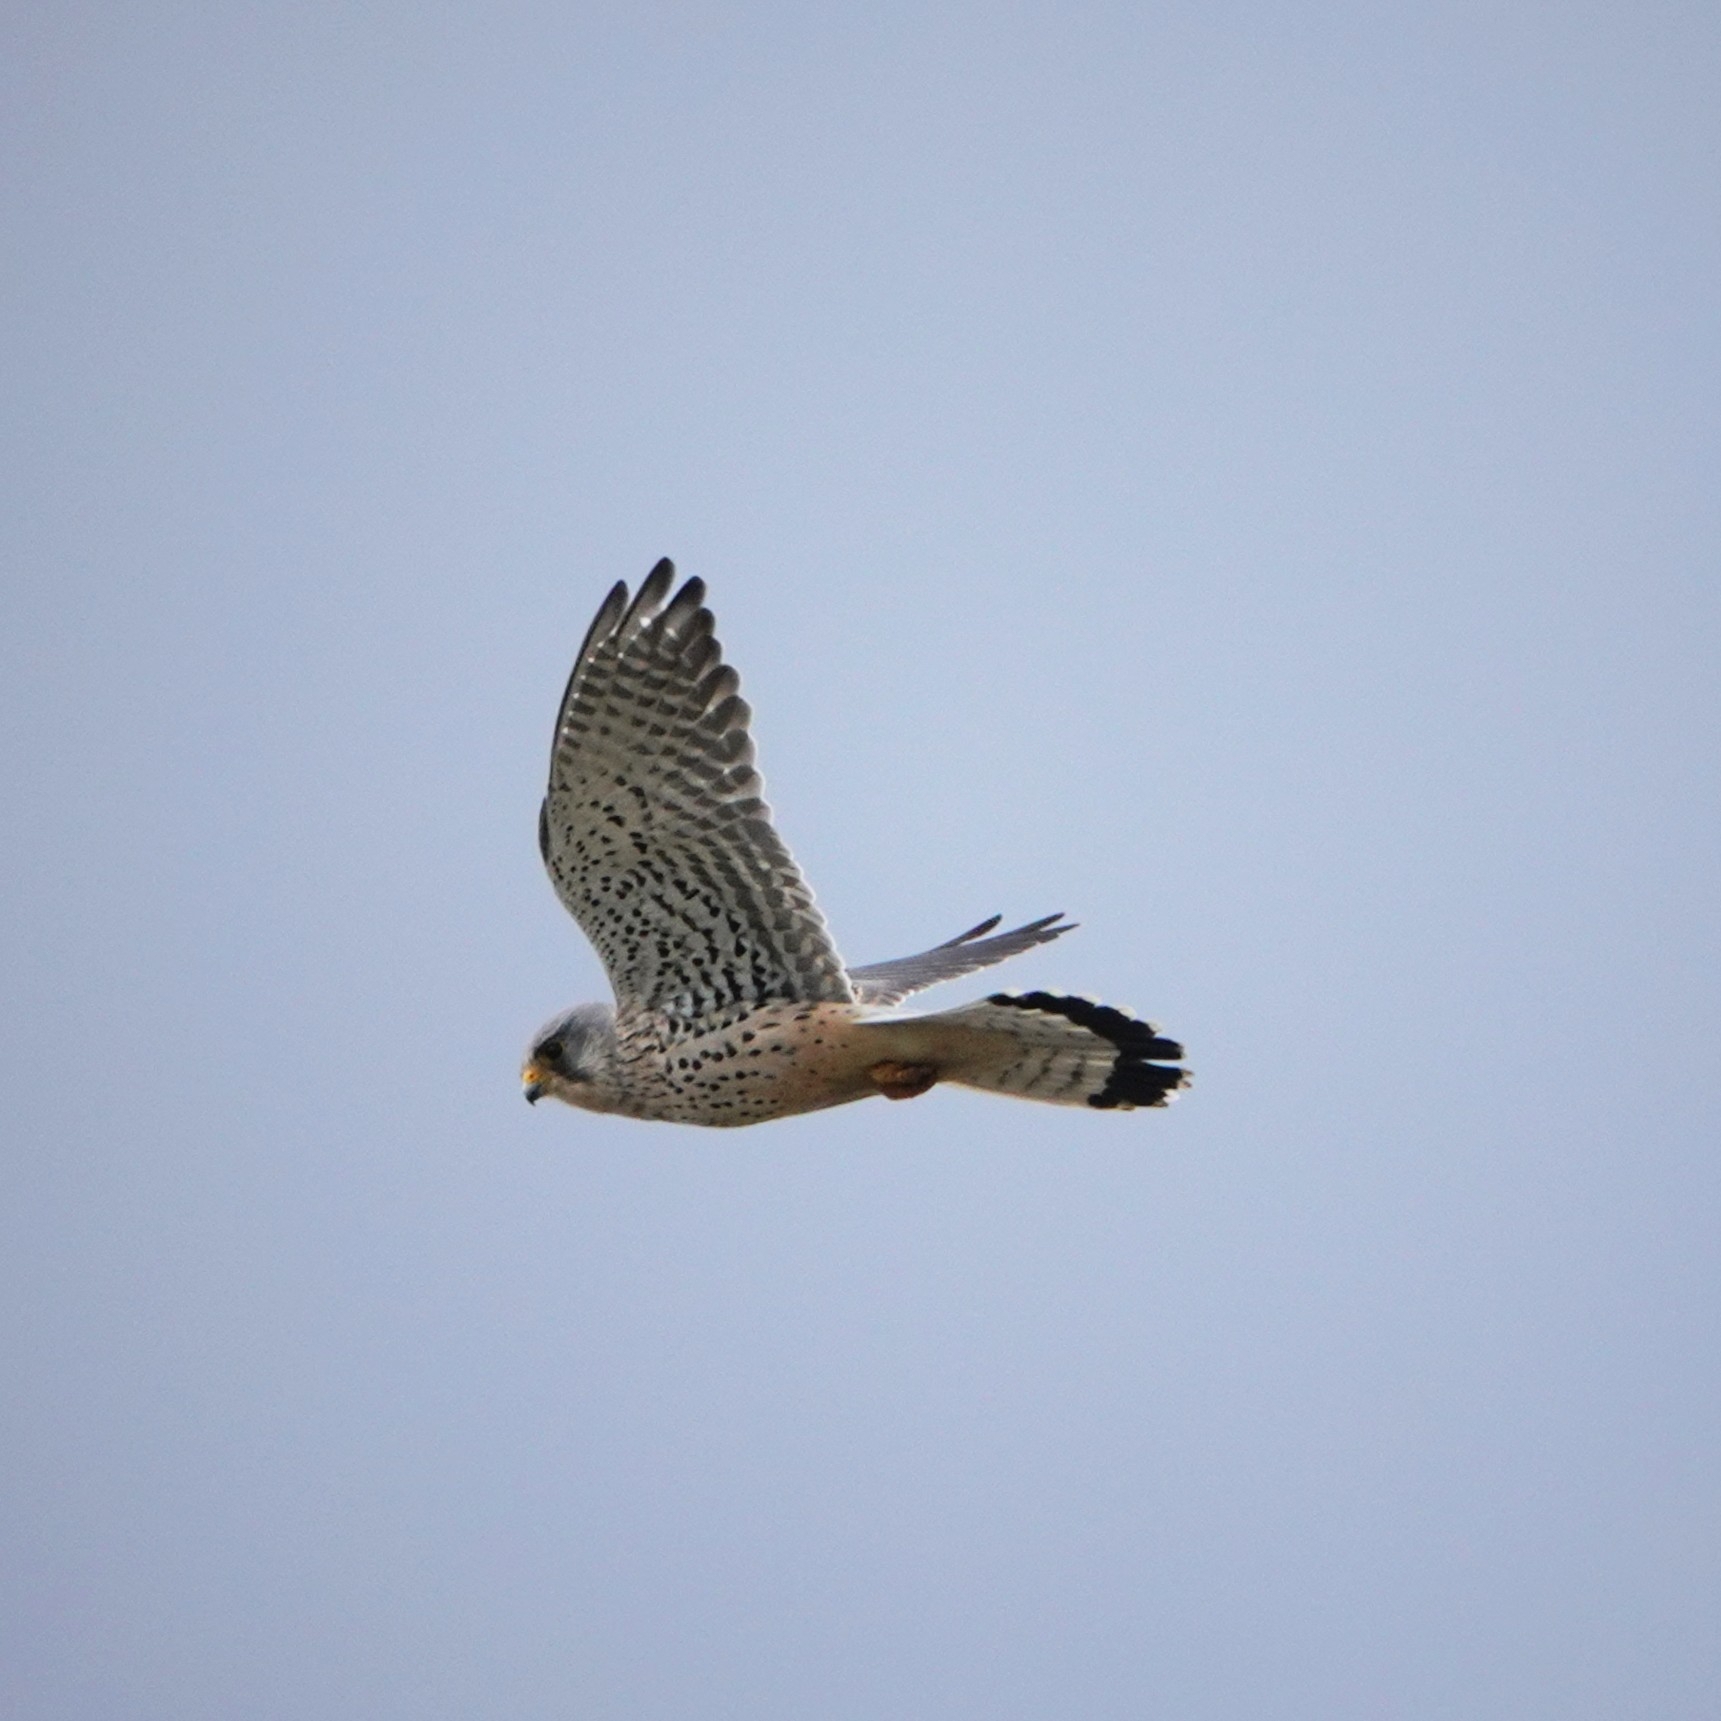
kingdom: Animalia
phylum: Chordata
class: Aves
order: Falconiformes
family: Falconidae
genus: Falco
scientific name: Falco tinnunculus
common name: Common kestrel
